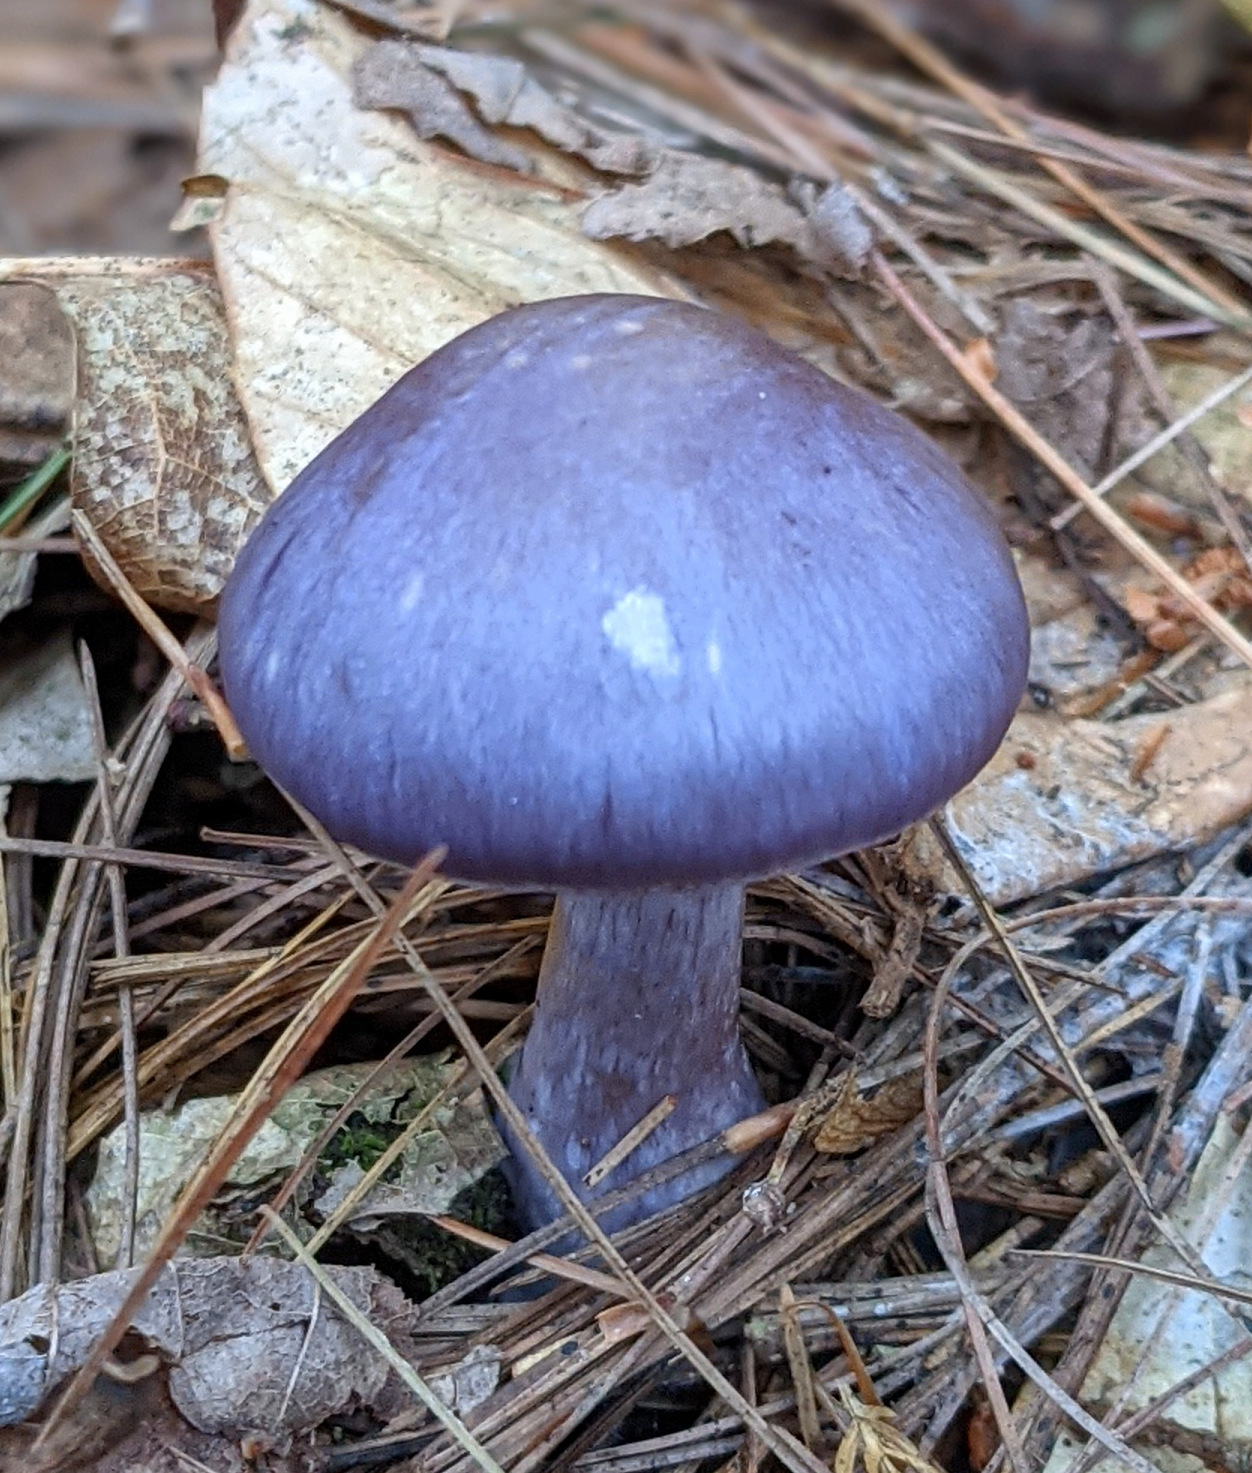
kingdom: Fungi
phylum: Basidiomycota
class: Agaricomycetes
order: Agaricales
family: Cortinariaceae
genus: Cortinarius
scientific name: Cortinarius iodes
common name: Viscid violet cort
